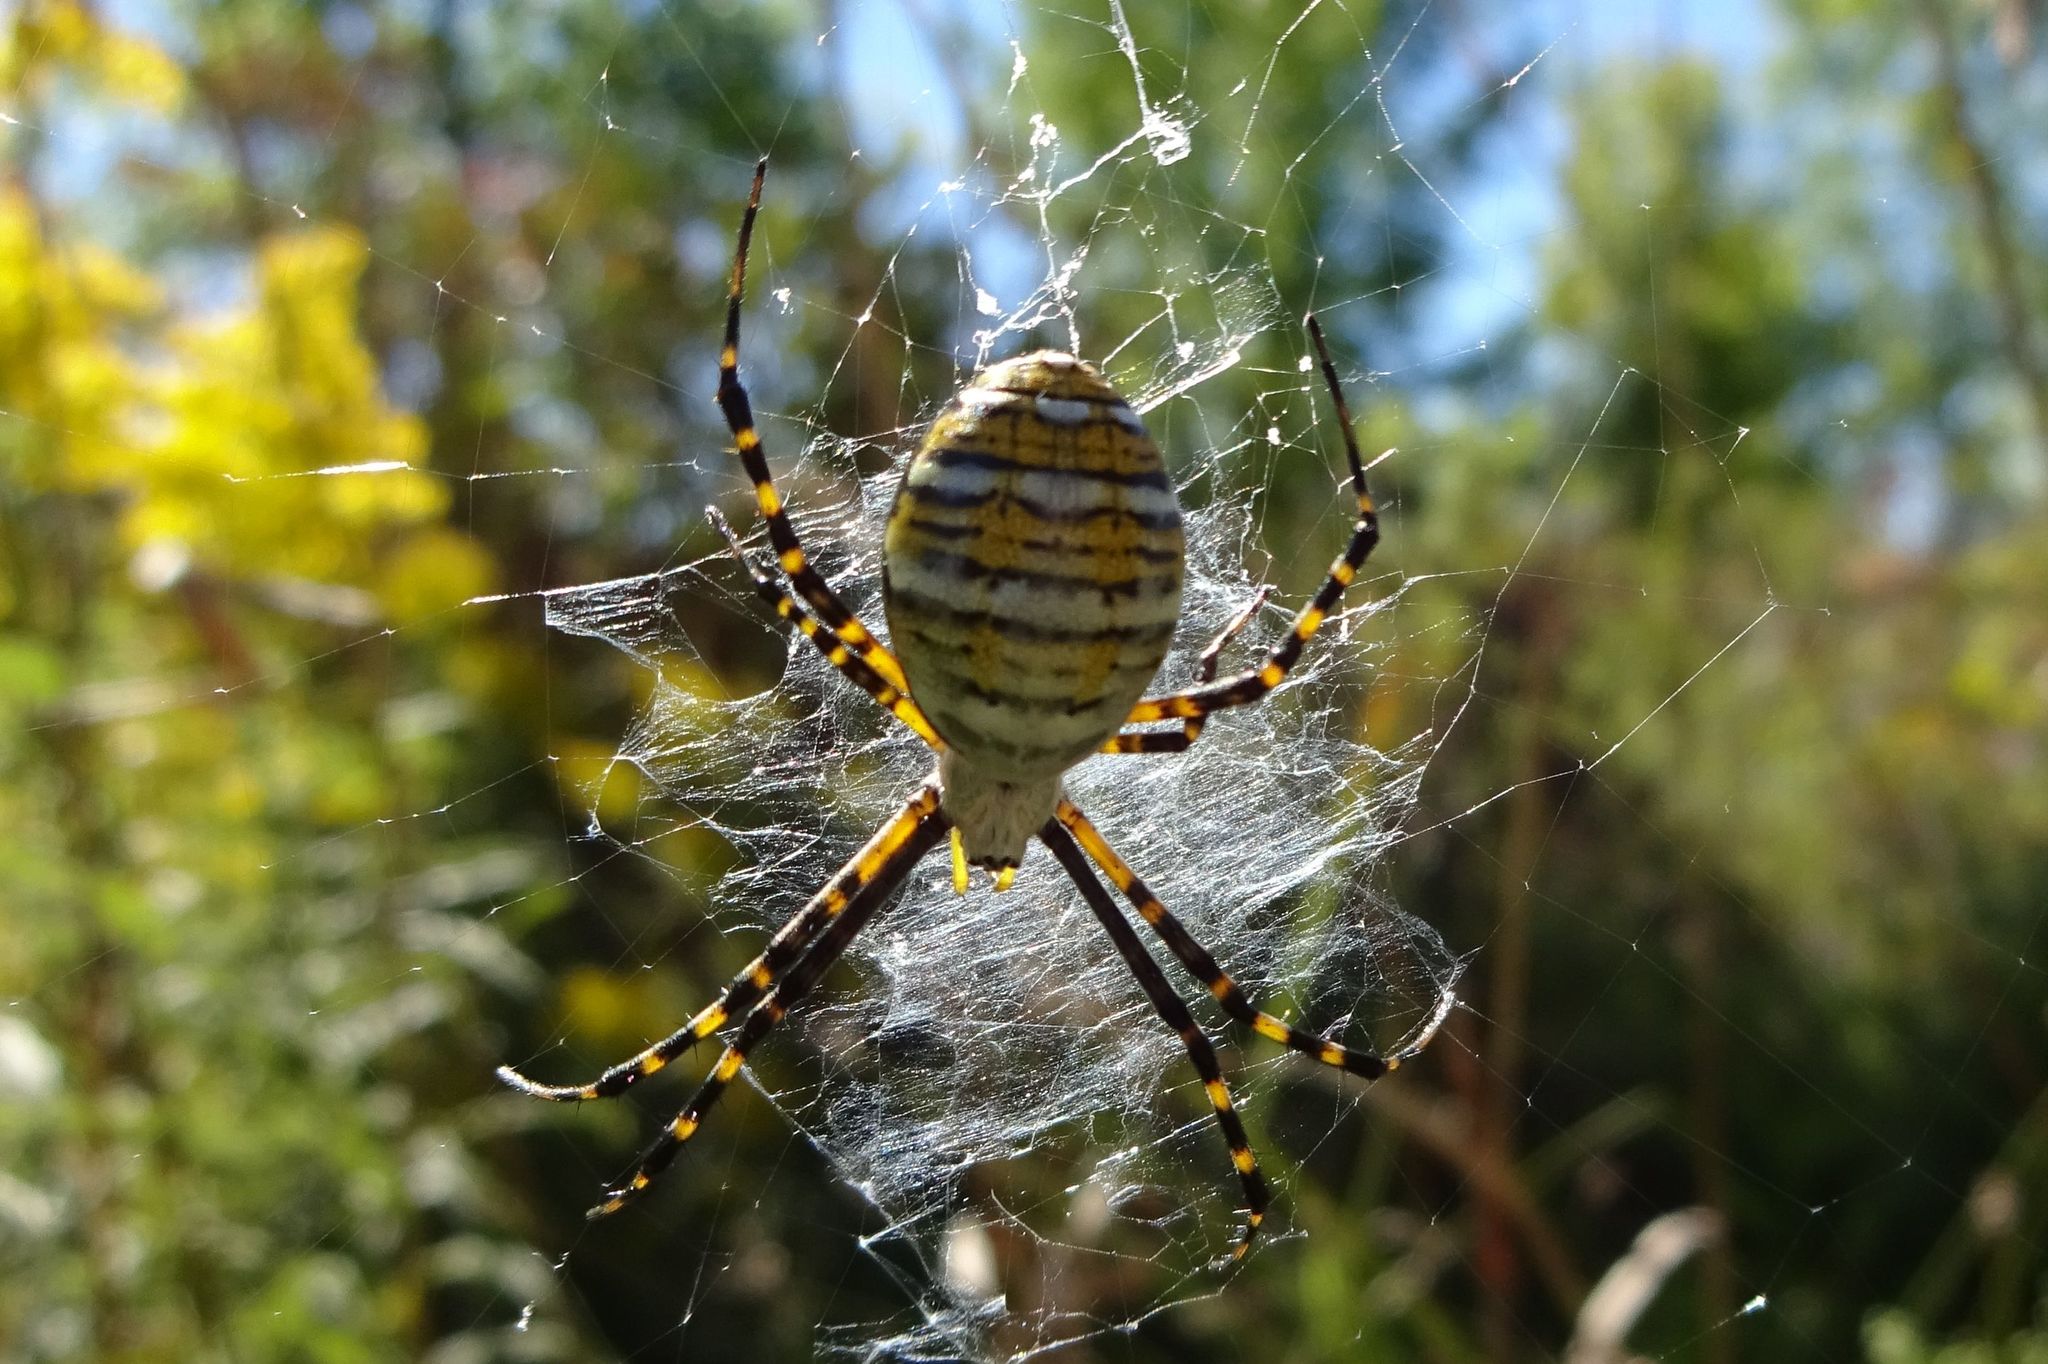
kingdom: Animalia
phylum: Arthropoda
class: Arachnida
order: Araneae
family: Araneidae
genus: Argiope
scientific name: Argiope trifasciata
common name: Banded garden spider
